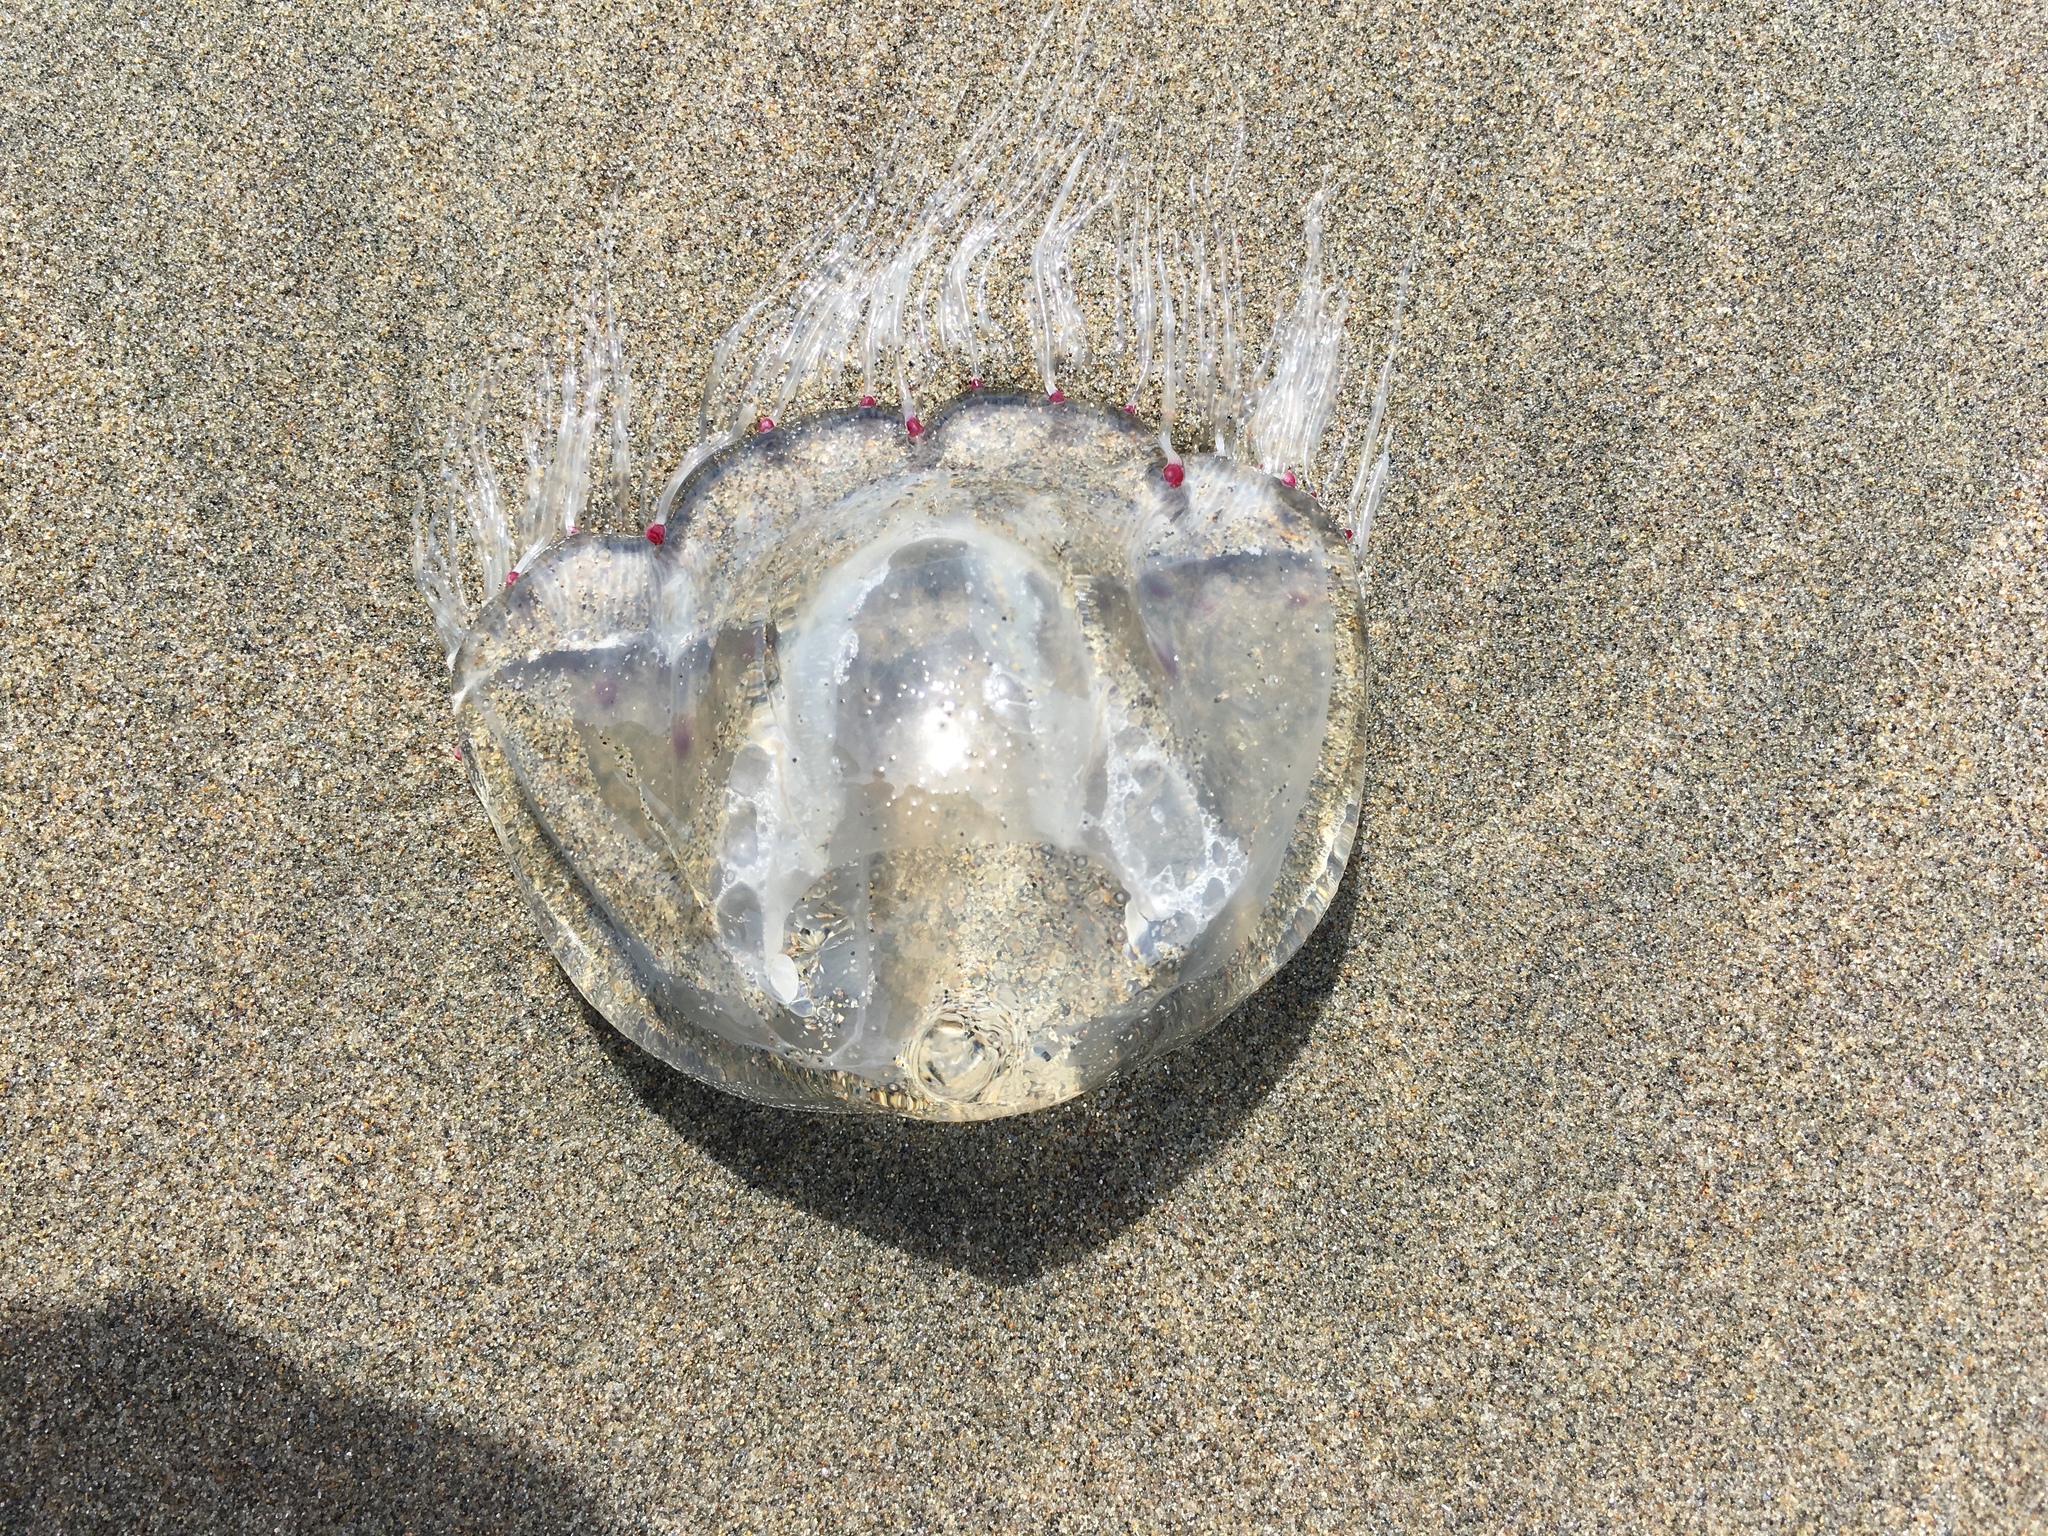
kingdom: Animalia
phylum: Cnidaria
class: Hydrozoa
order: Anthoathecata
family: Corynidae
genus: Scrippsia
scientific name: Scrippsia pacifica
